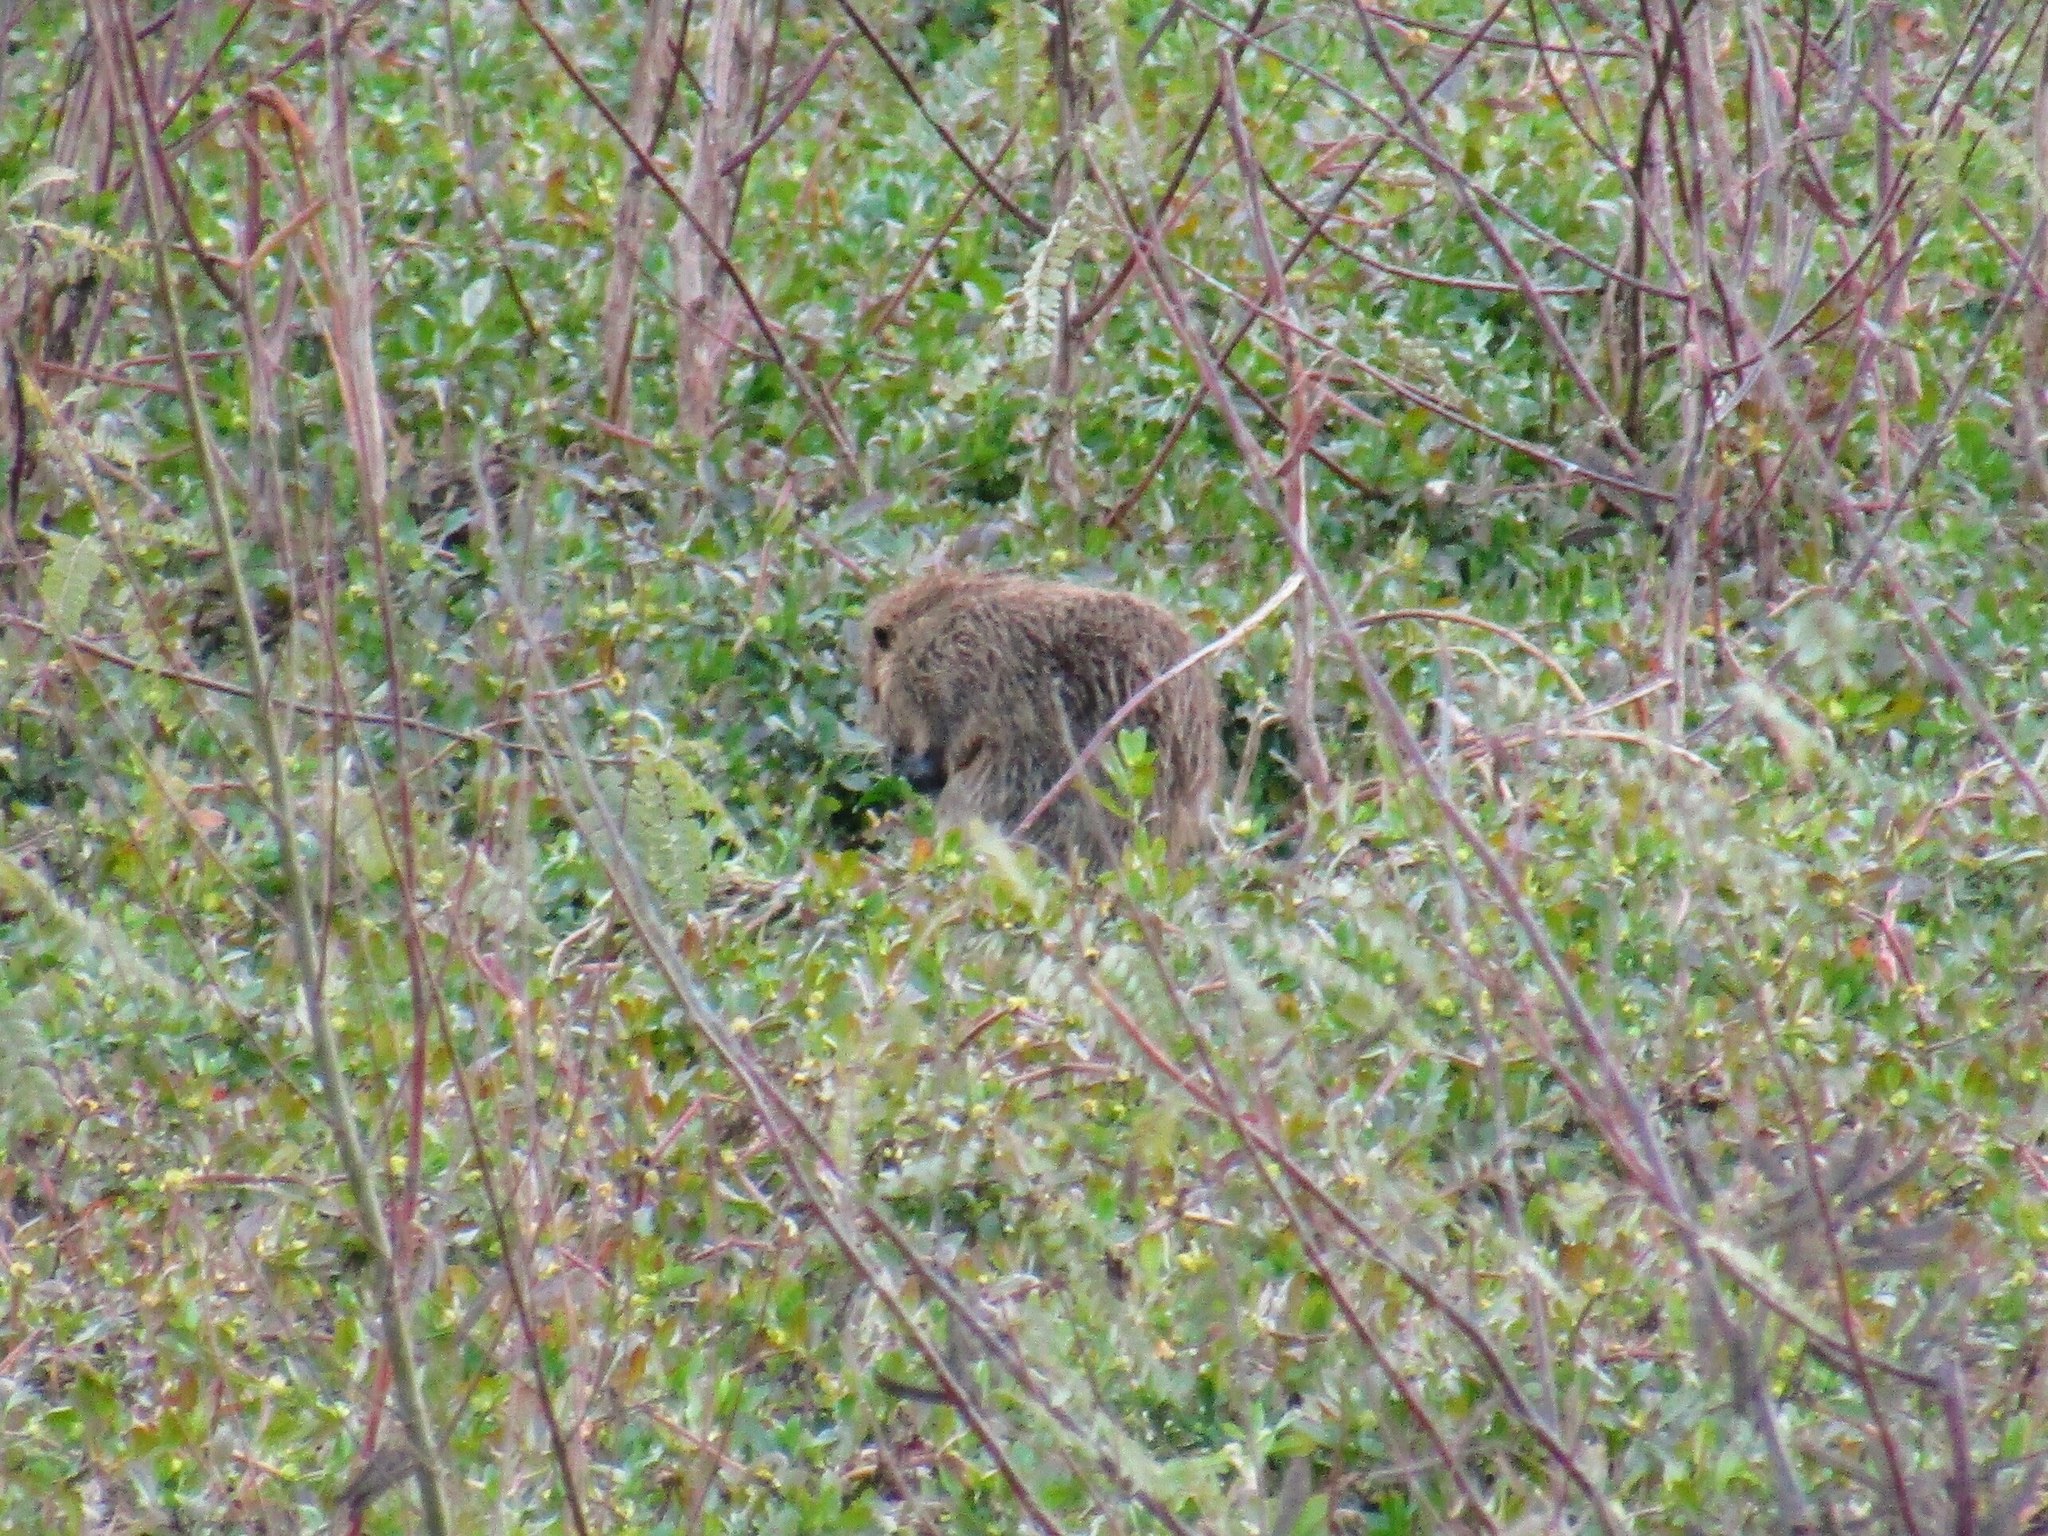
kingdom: Animalia
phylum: Chordata
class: Mammalia
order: Rodentia
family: Myocastoridae
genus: Myocastor
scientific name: Myocastor coypus
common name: Coypu
